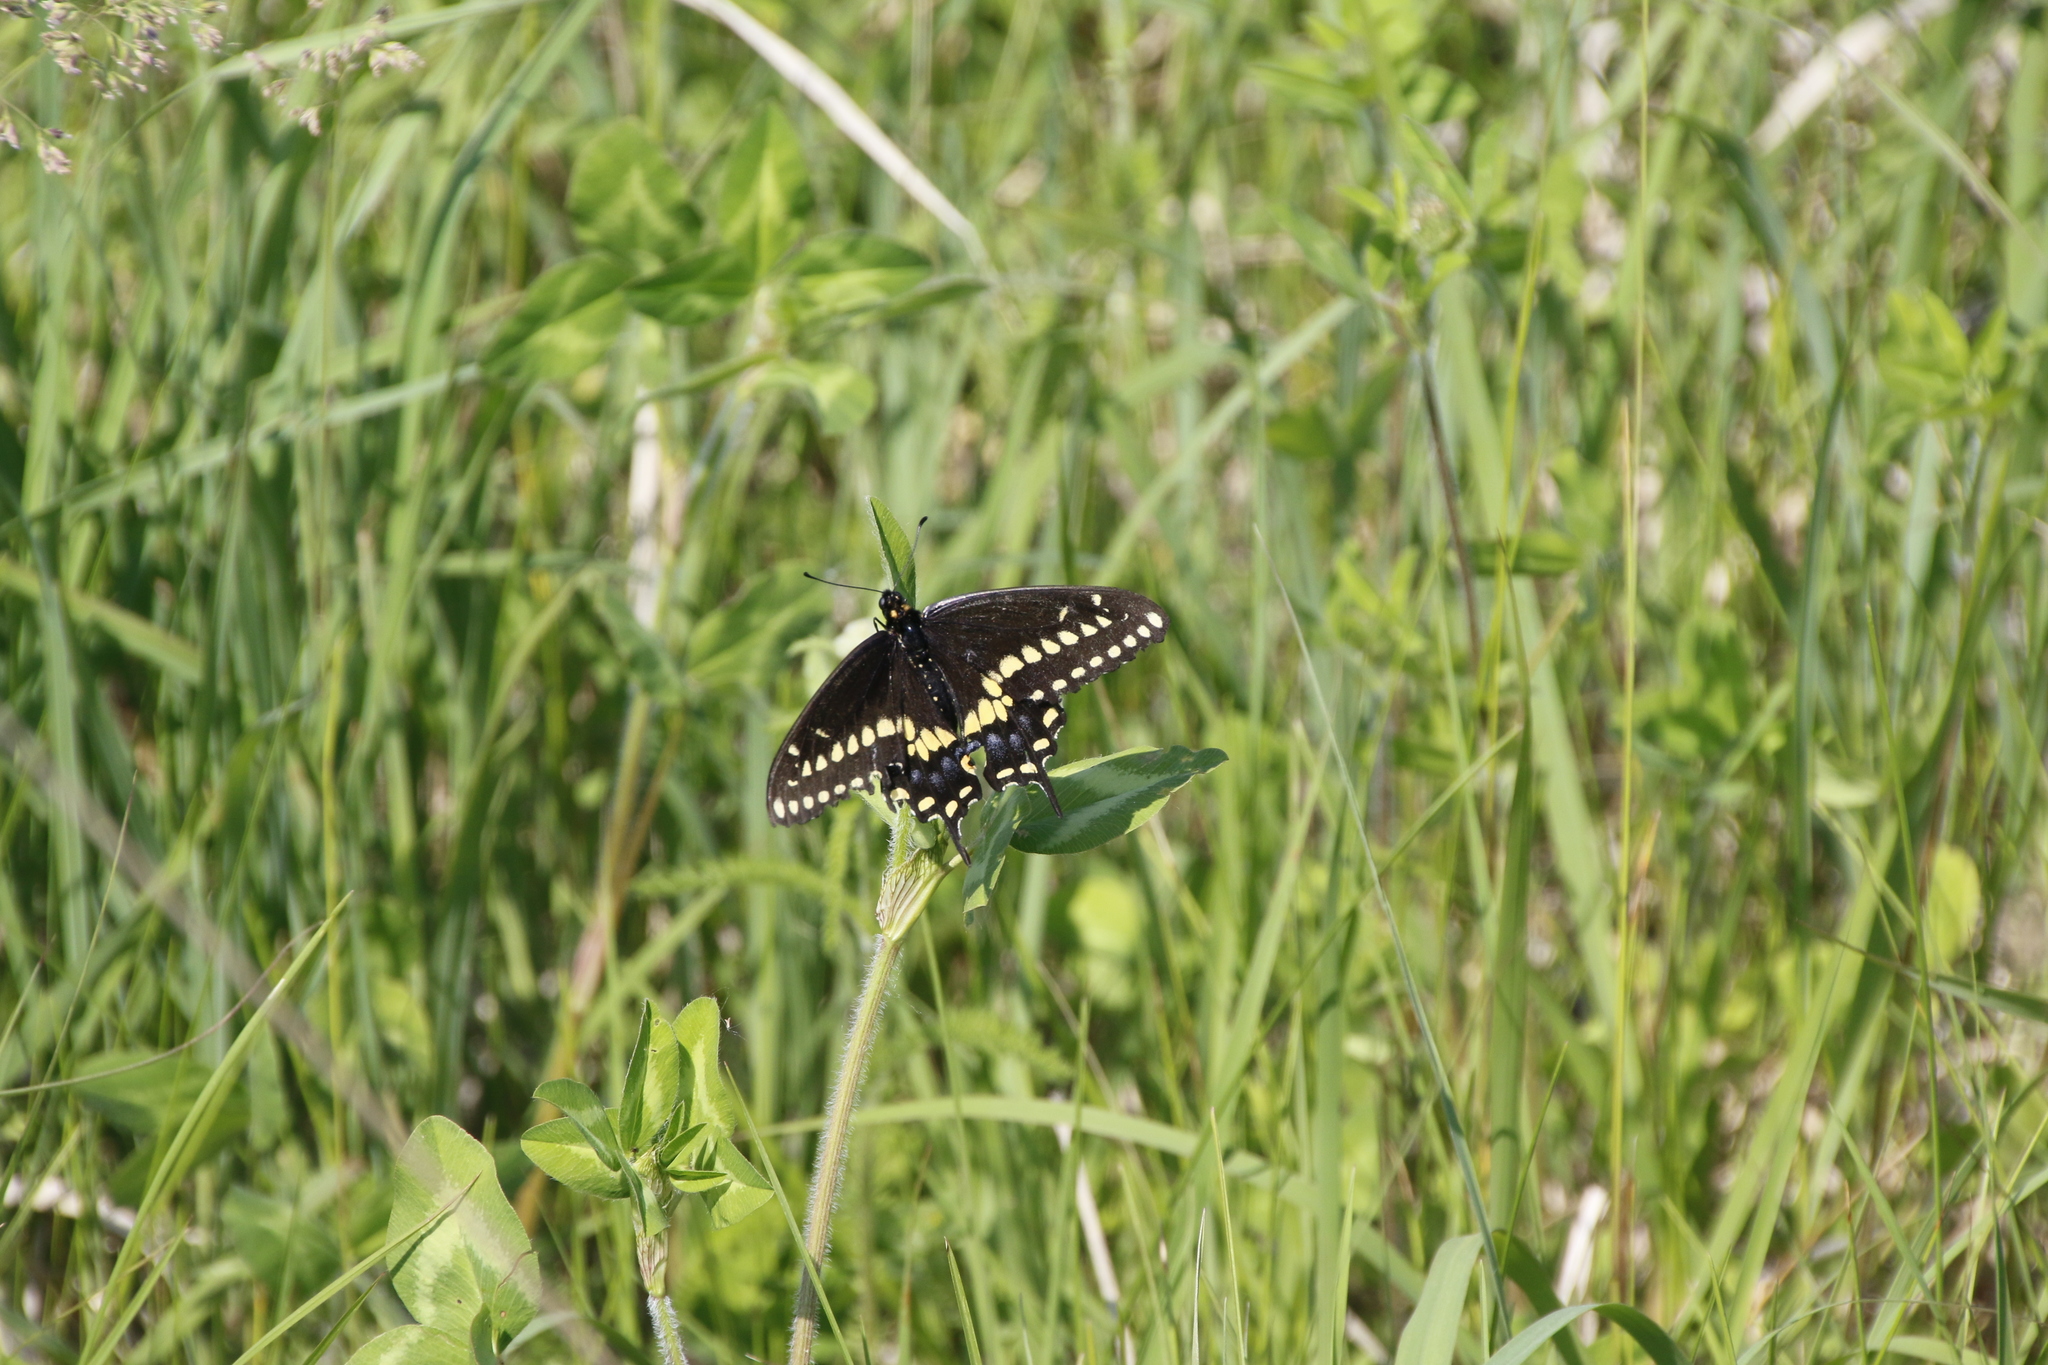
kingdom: Animalia
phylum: Arthropoda
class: Insecta
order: Lepidoptera
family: Papilionidae
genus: Papilio
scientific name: Papilio polyxenes
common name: Black swallowtail
